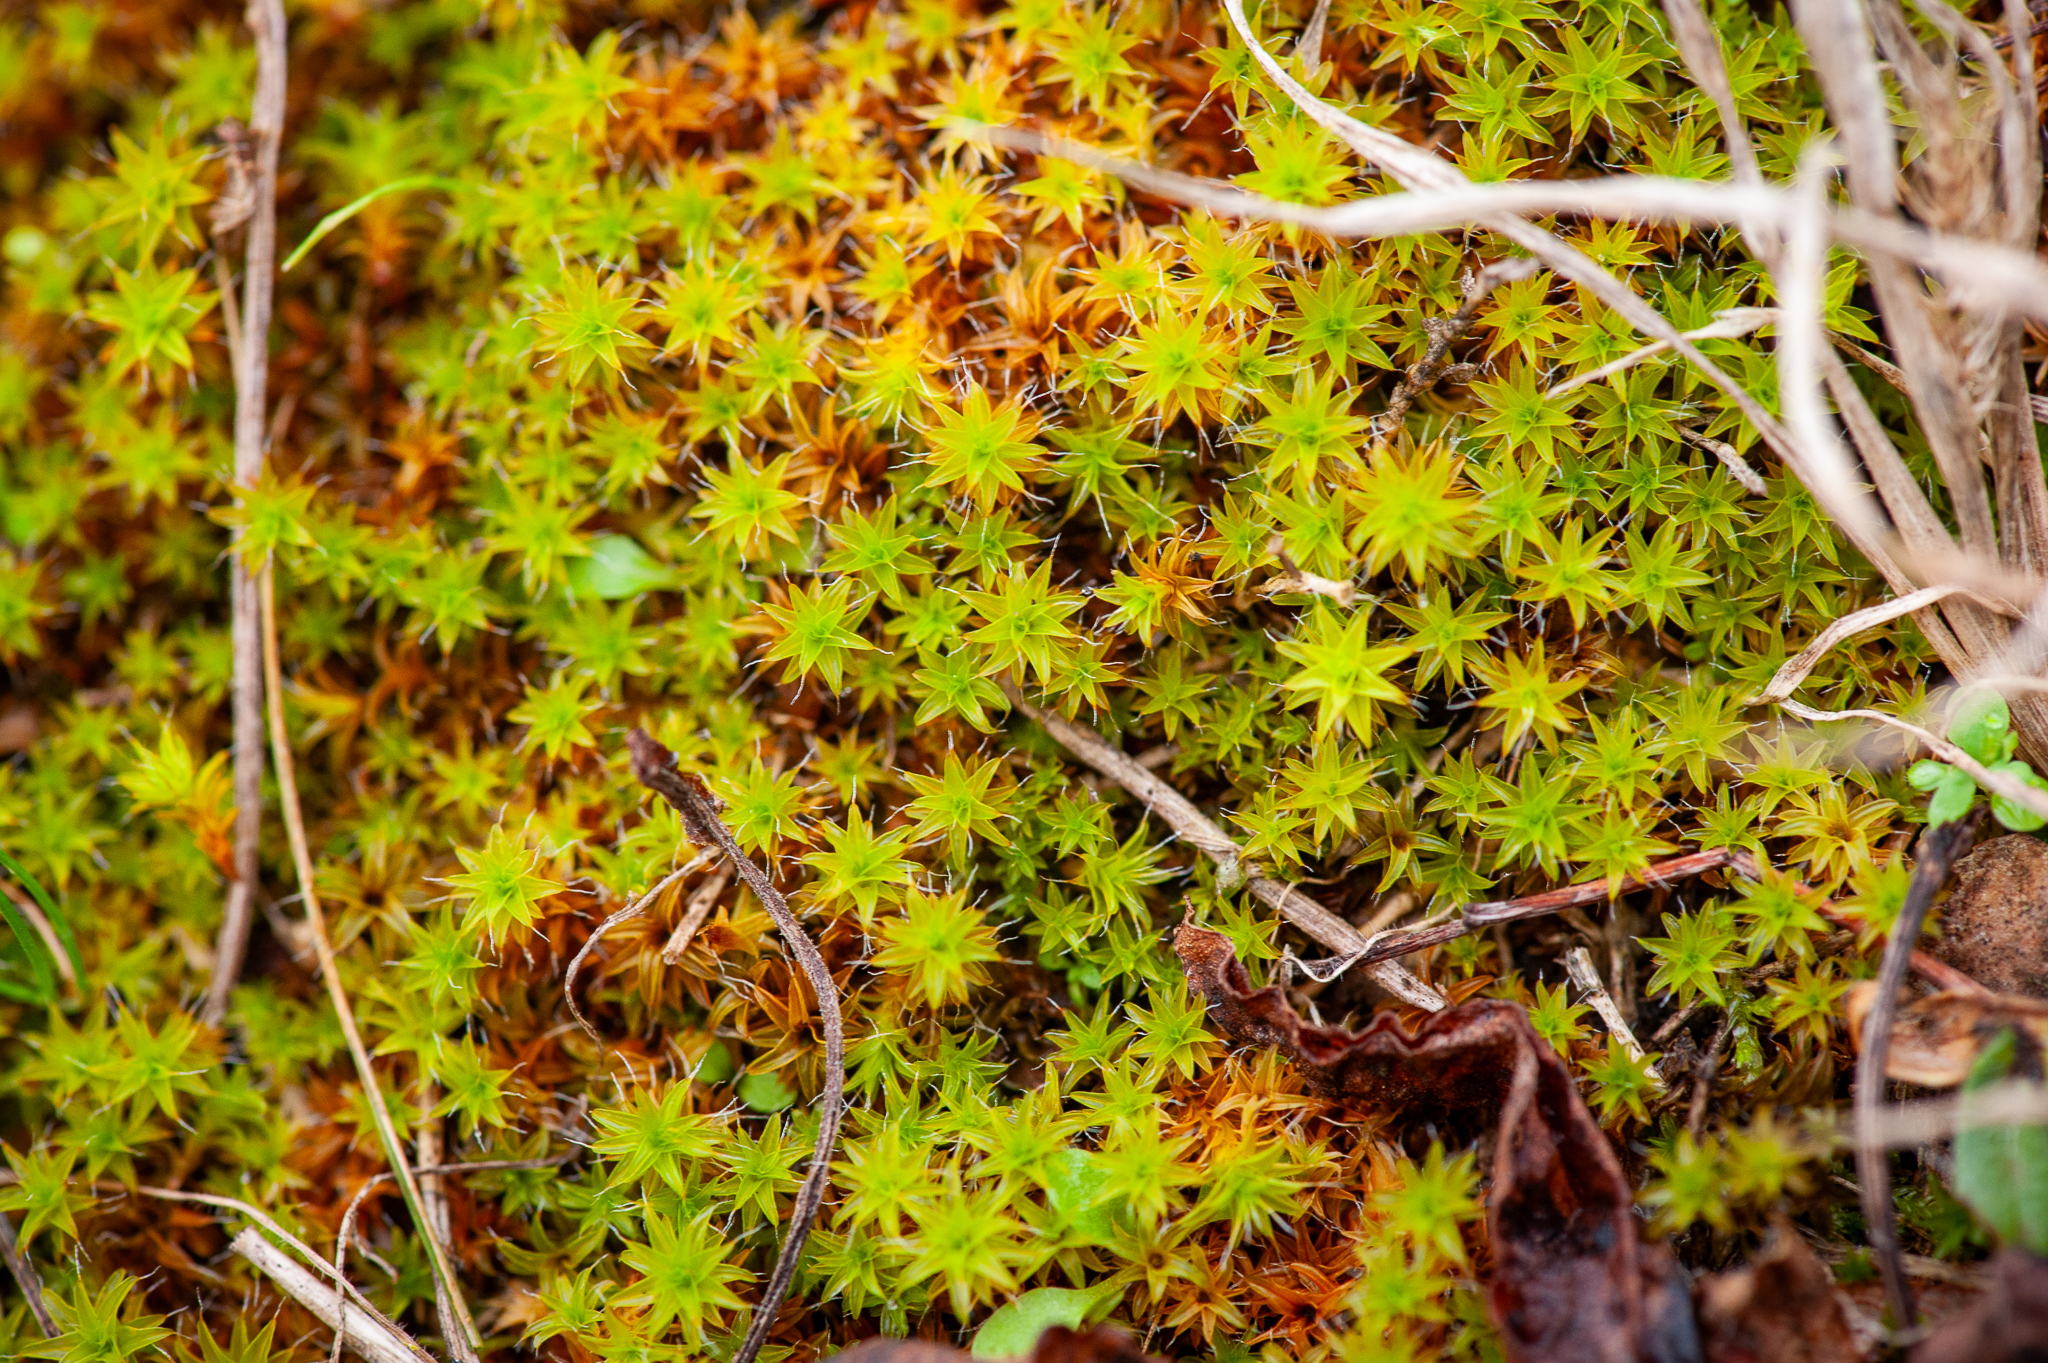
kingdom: Plantae
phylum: Bryophyta
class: Bryopsida
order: Pottiales
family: Pottiaceae
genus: Syntrichia
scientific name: Syntrichia ruralis
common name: Sidewalk screw moss
